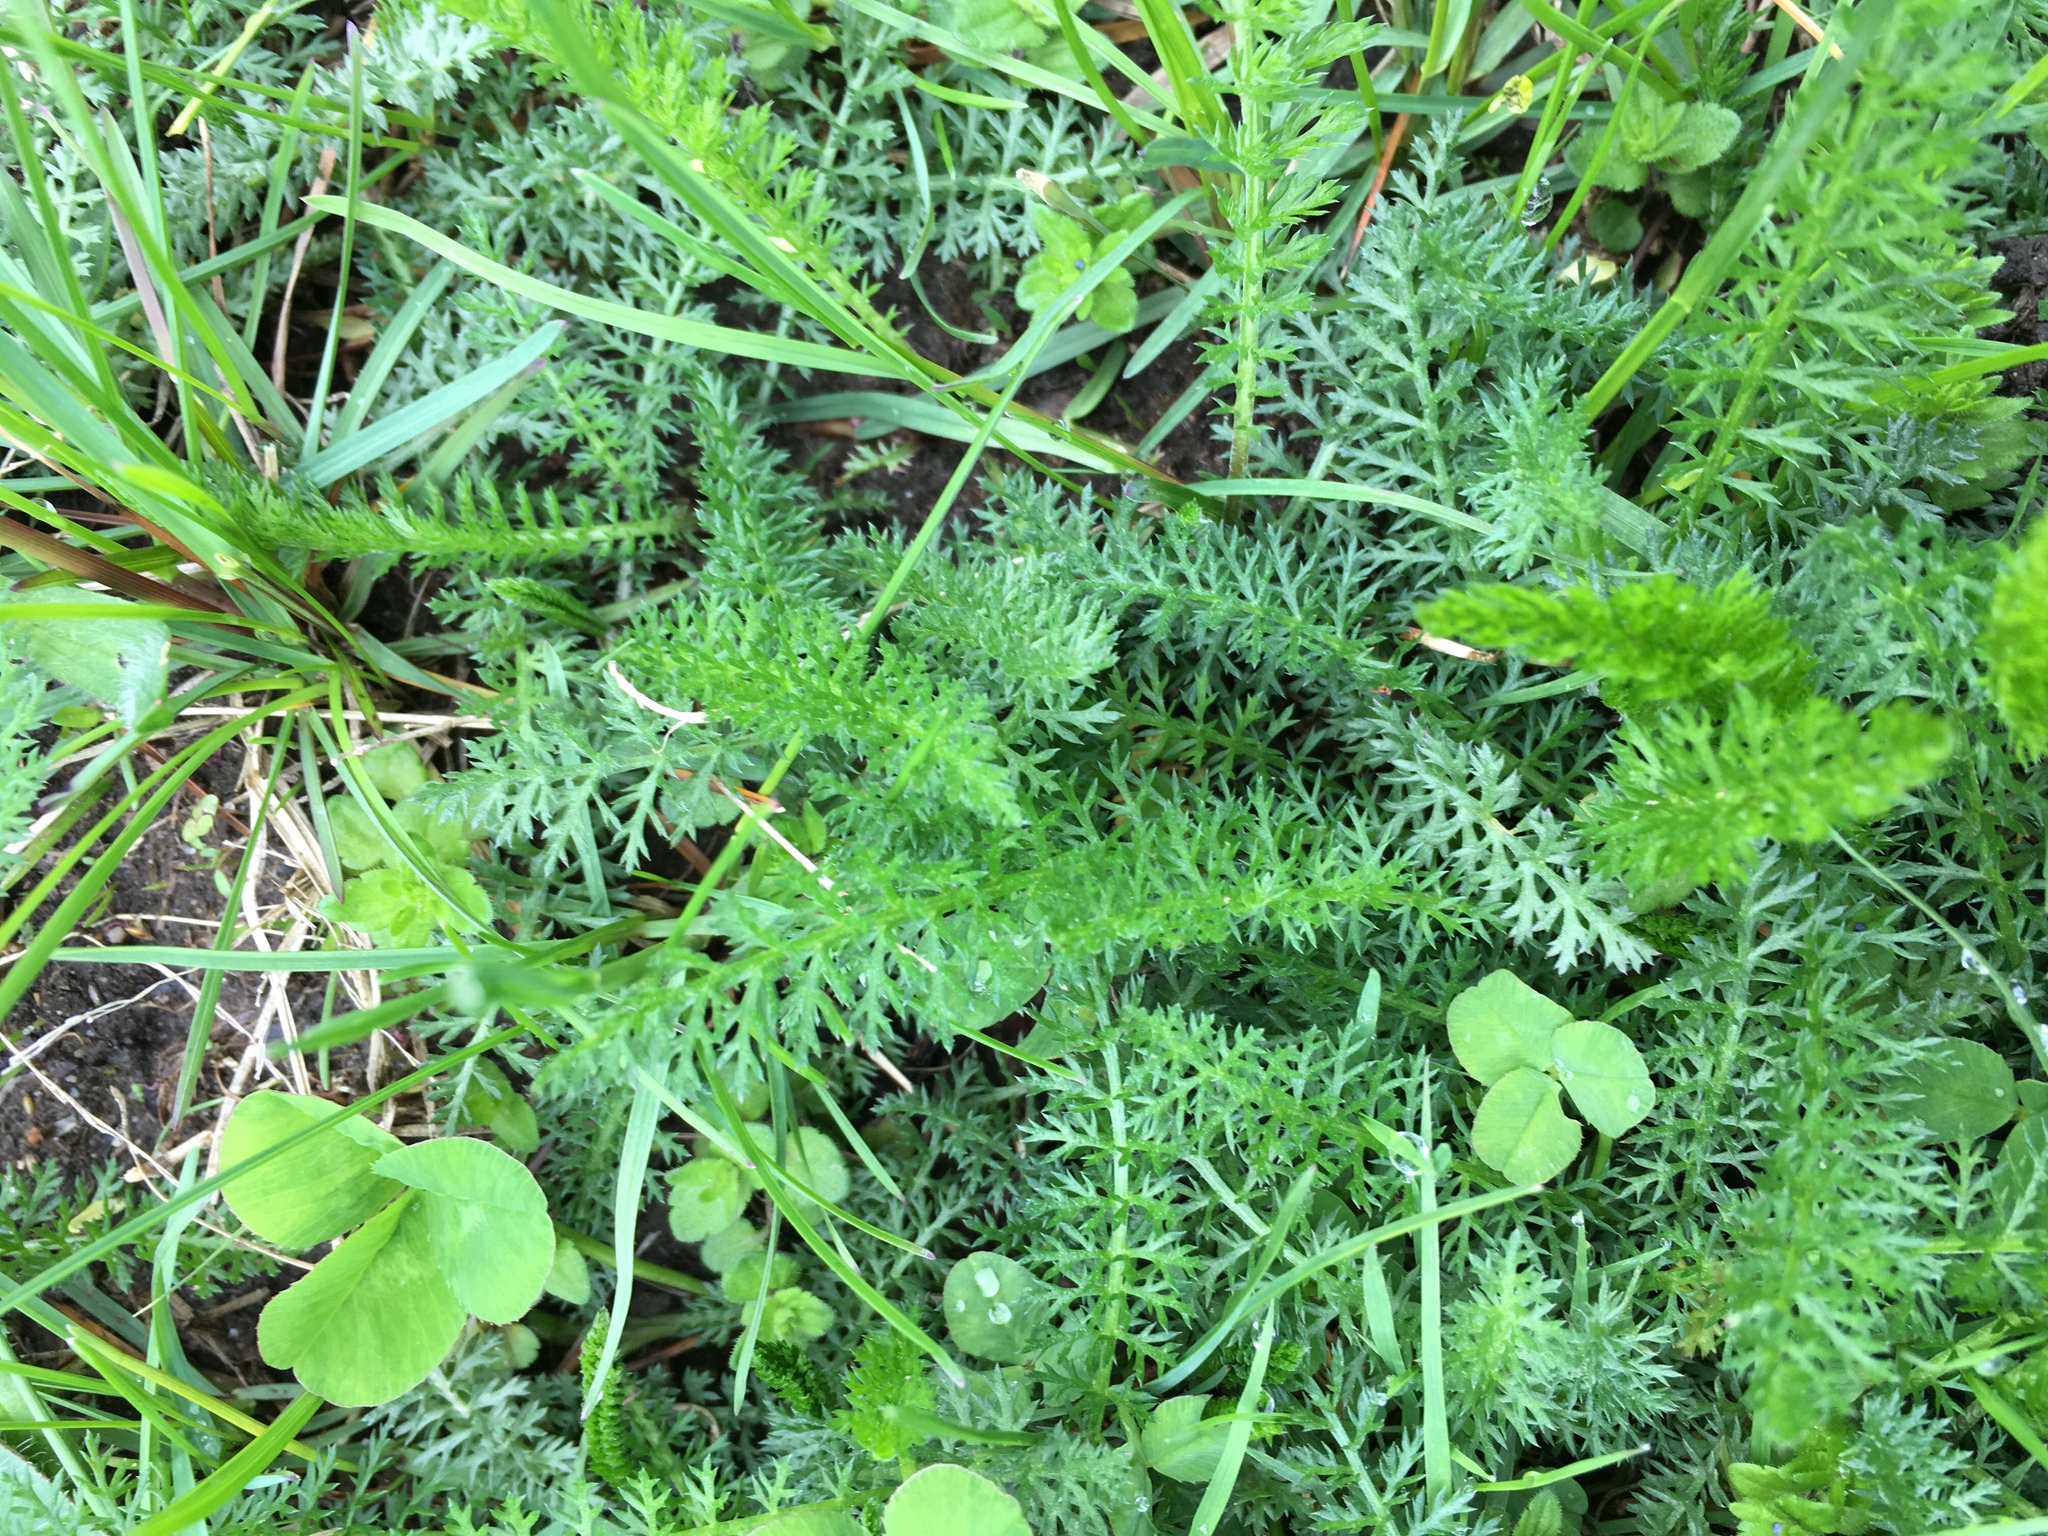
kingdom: Plantae
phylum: Tracheophyta
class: Magnoliopsida
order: Asterales
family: Asteraceae
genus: Achillea
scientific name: Achillea millefolium
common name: Yarrow
